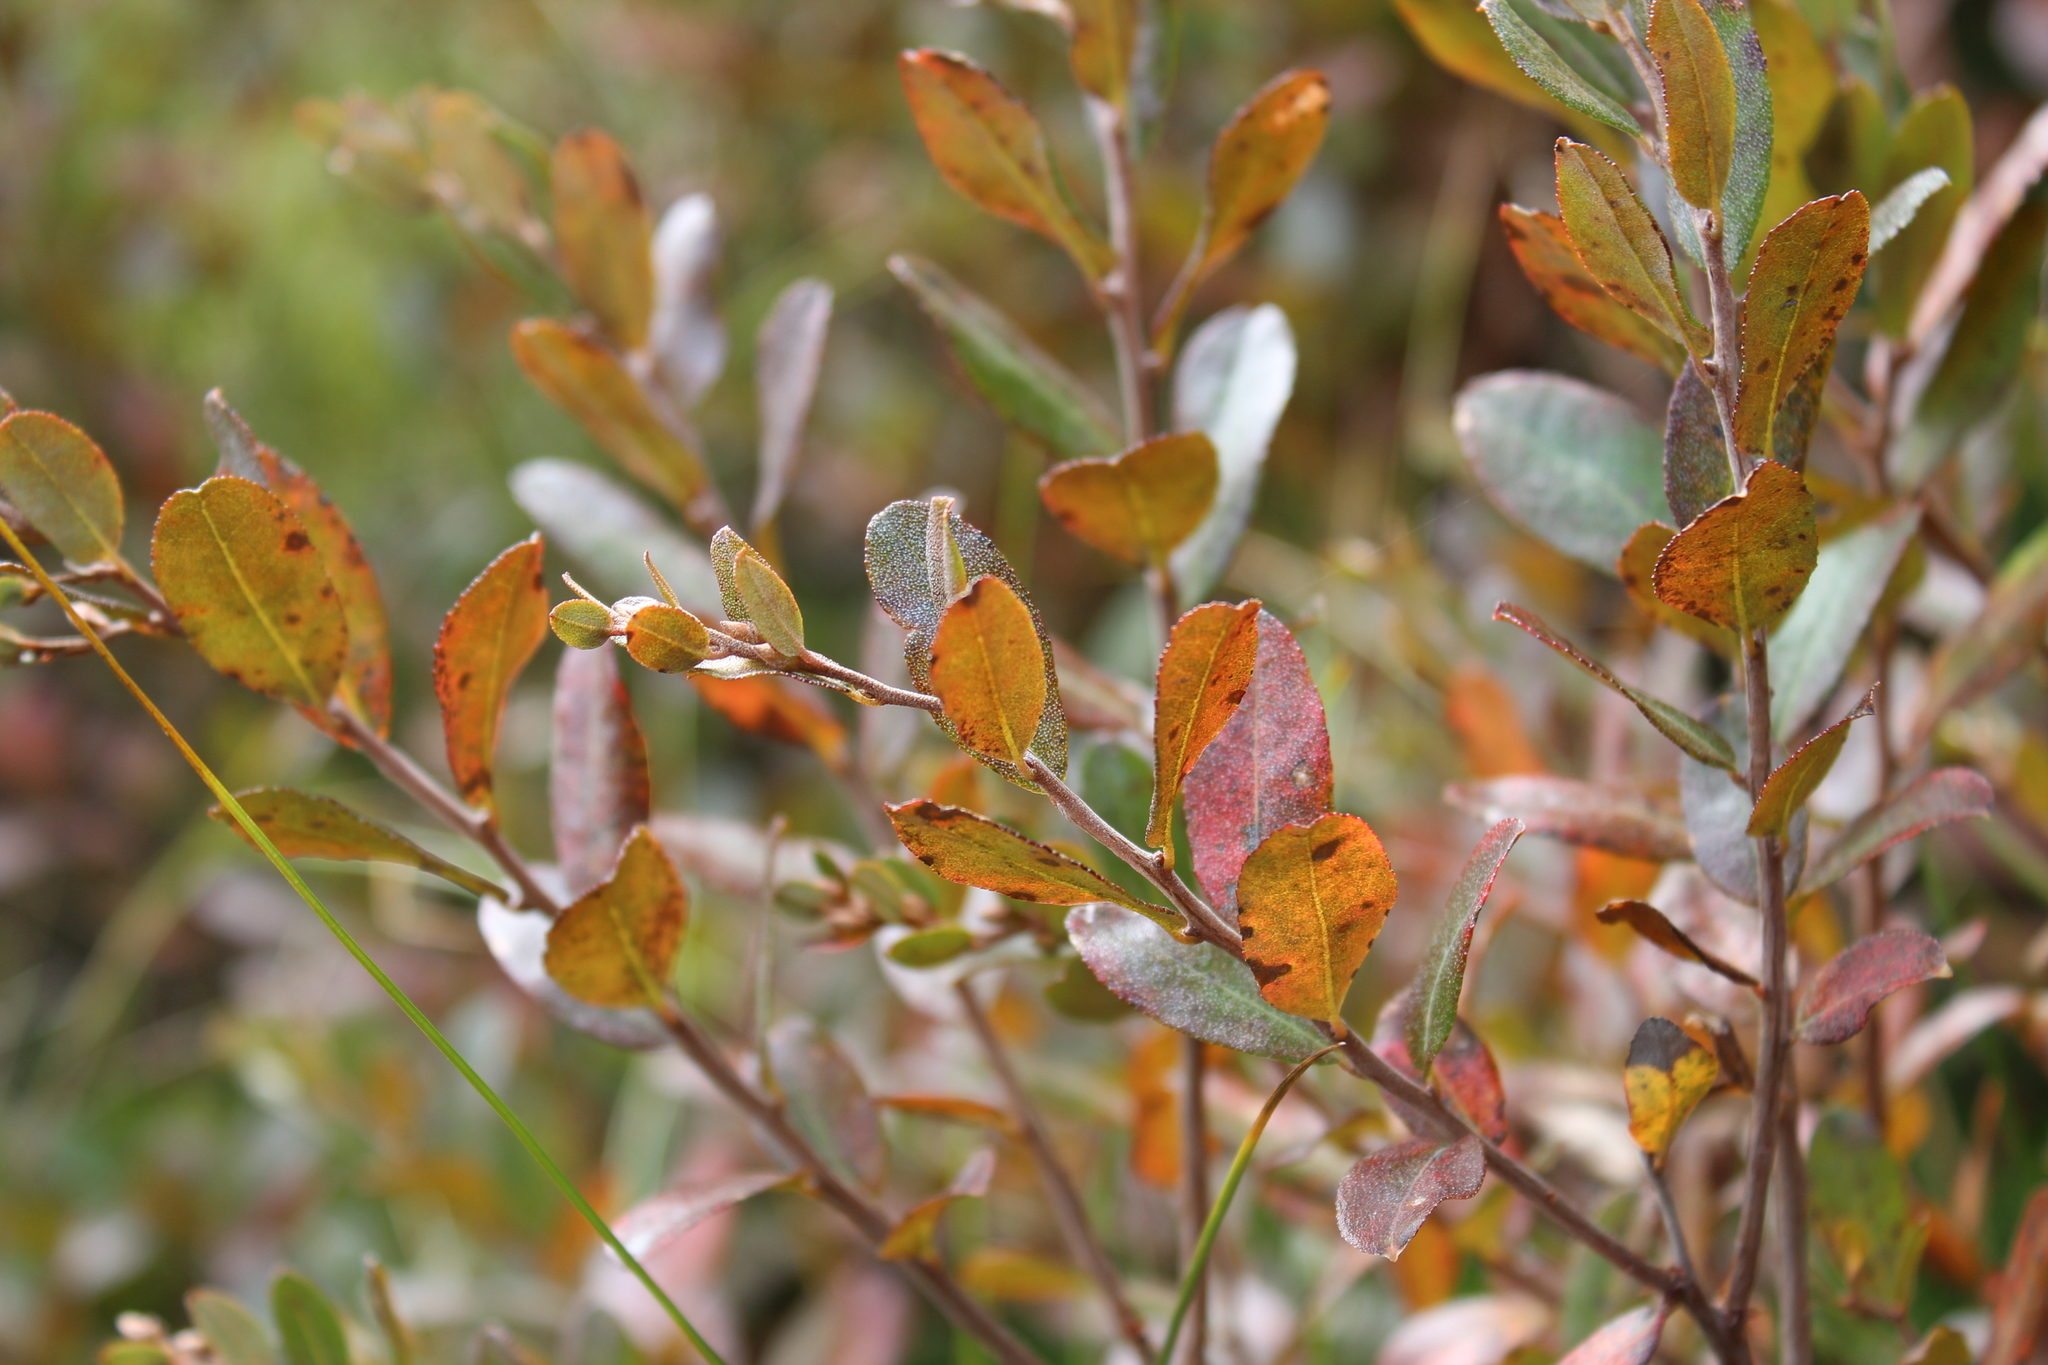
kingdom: Plantae
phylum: Tracheophyta
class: Magnoliopsida
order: Ericales
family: Ericaceae
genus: Chamaedaphne
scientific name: Chamaedaphne calyculata
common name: Leatherleaf
